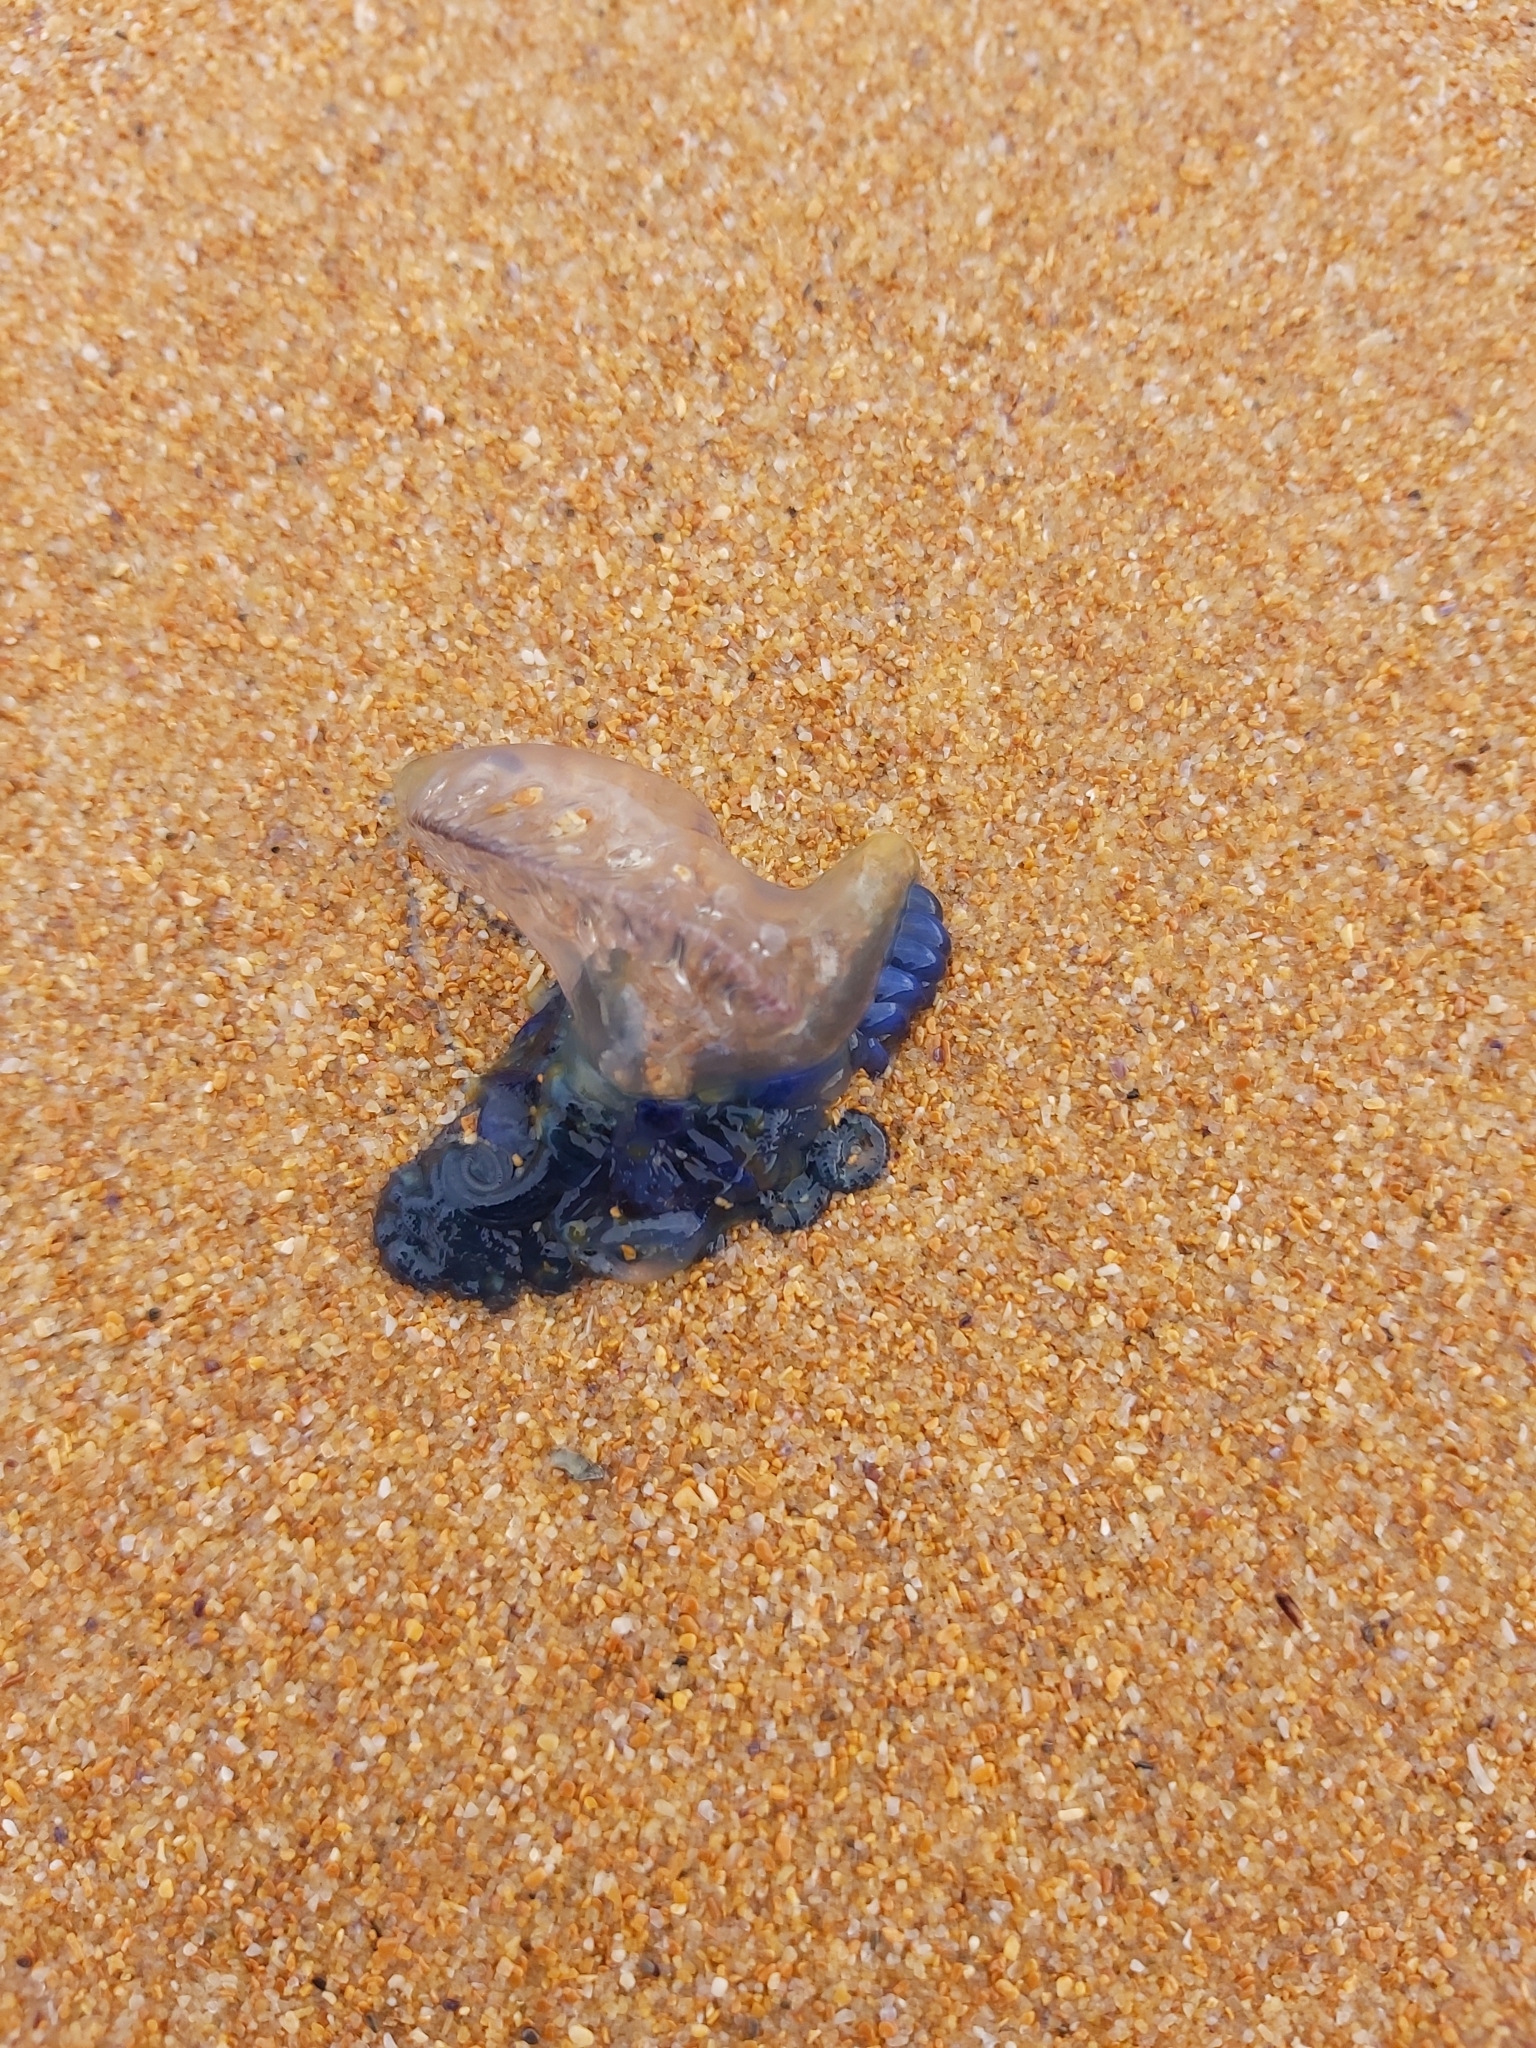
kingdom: Animalia
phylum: Cnidaria
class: Hydrozoa
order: Siphonophorae
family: Physaliidae
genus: Physalia
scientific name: Physalia physalis
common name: Portuguese man-of-war
